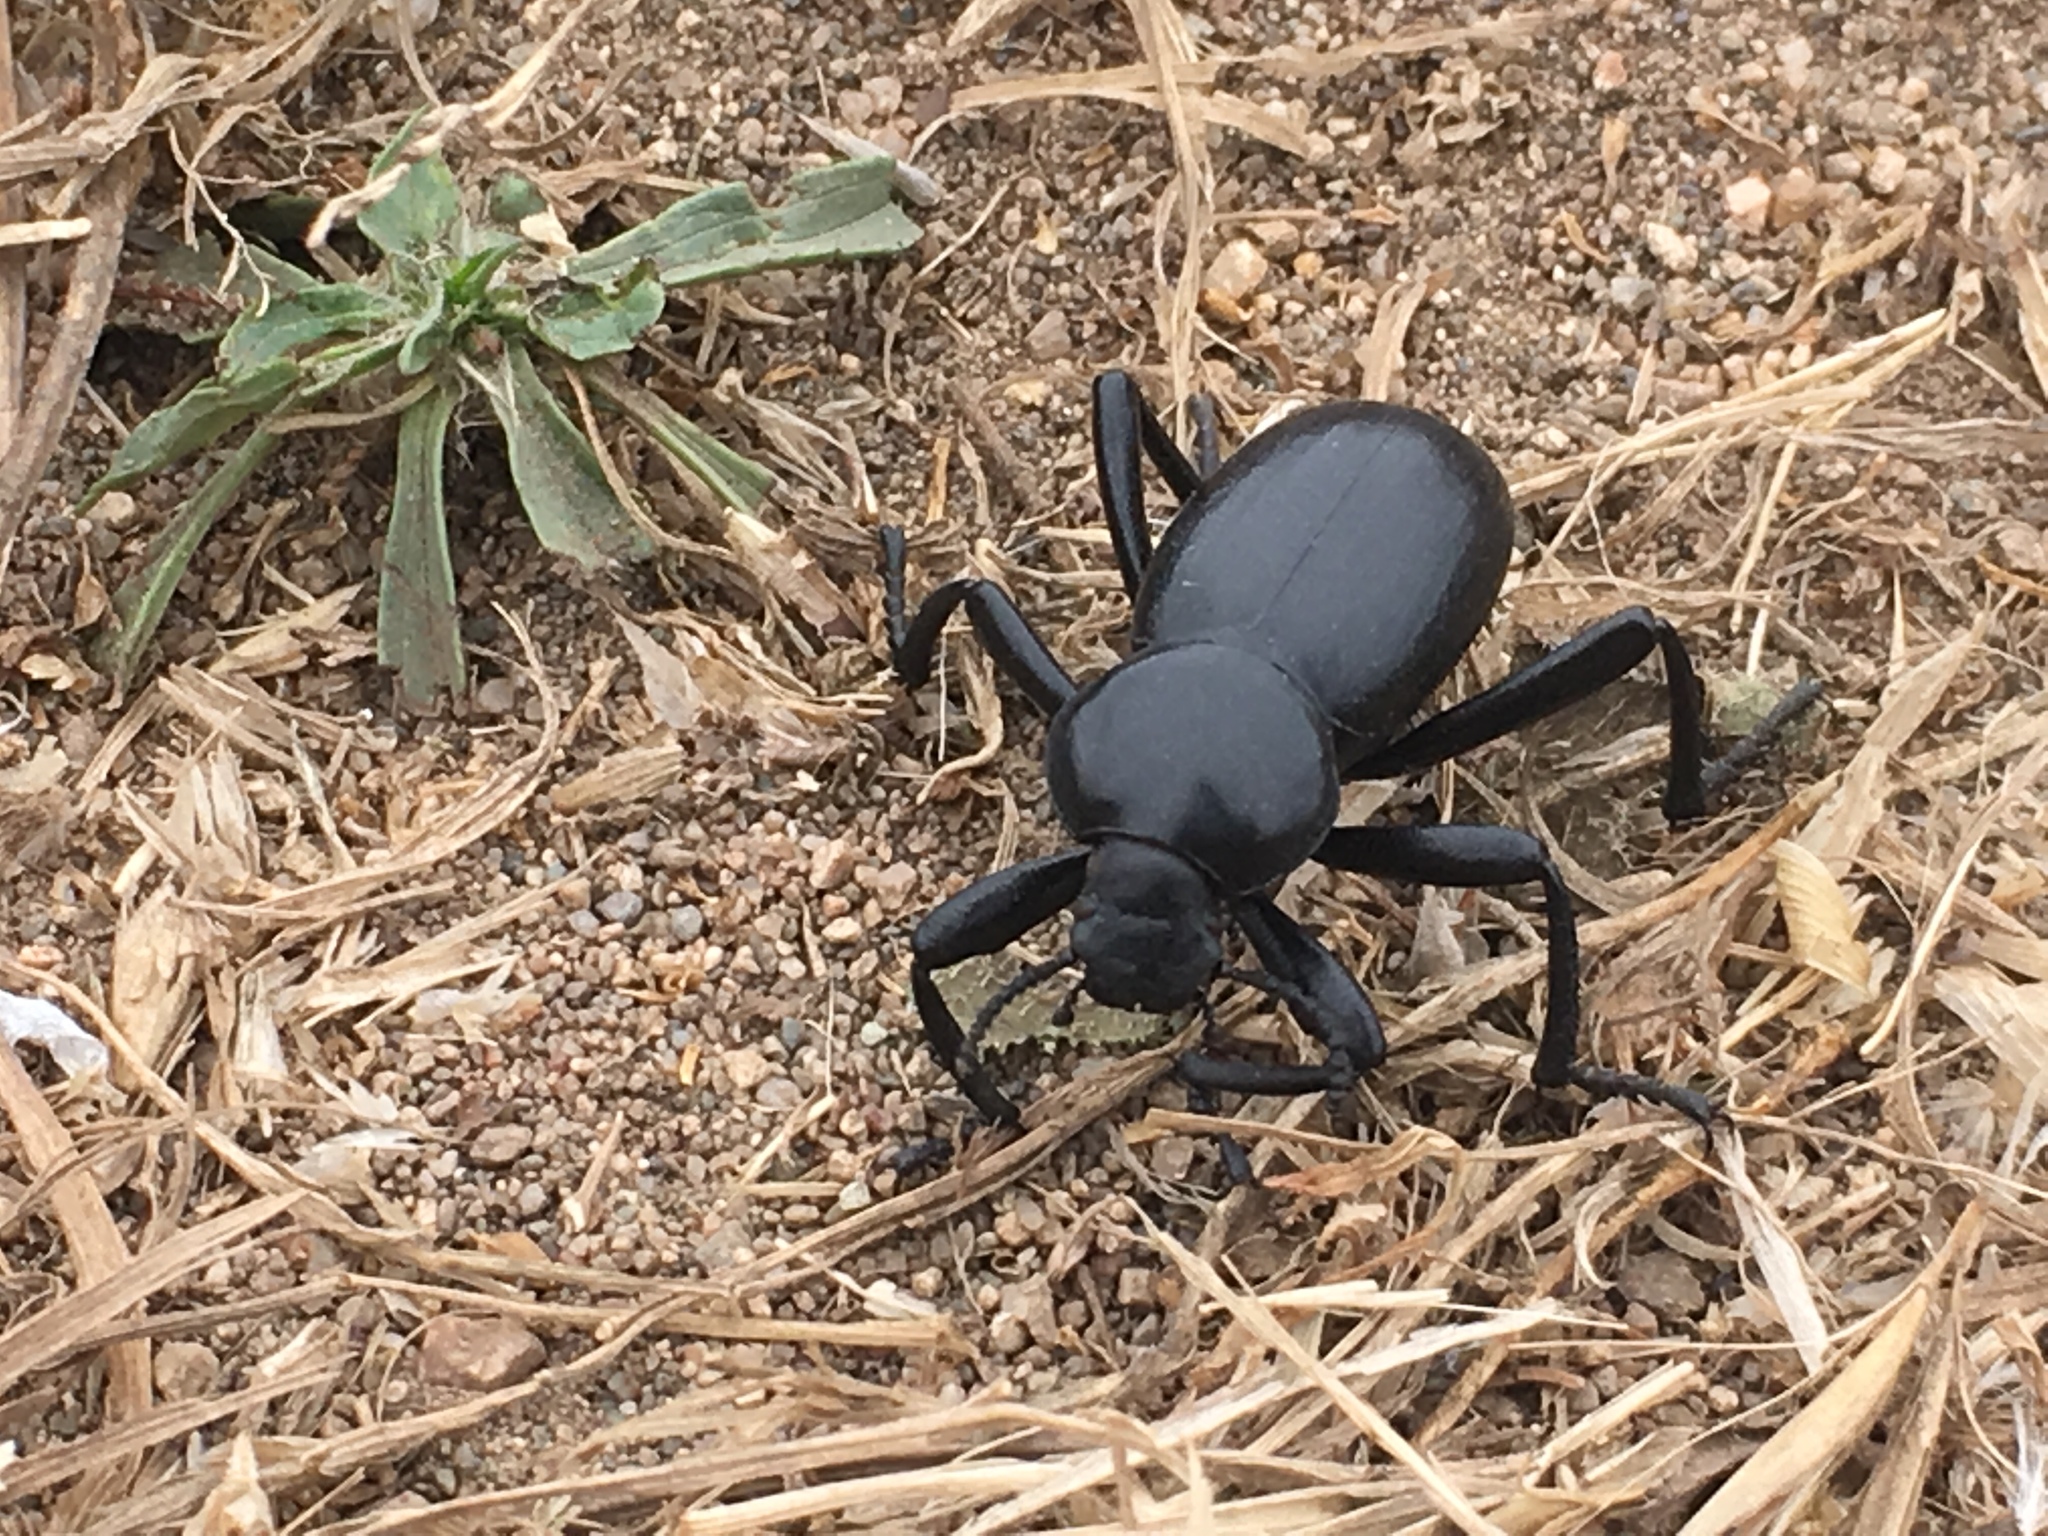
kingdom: Animalia
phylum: Arthropoda
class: Insecta
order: Coleoptera
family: Tenebrionidae
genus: Eleodes
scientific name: Eleodes grandicollis
